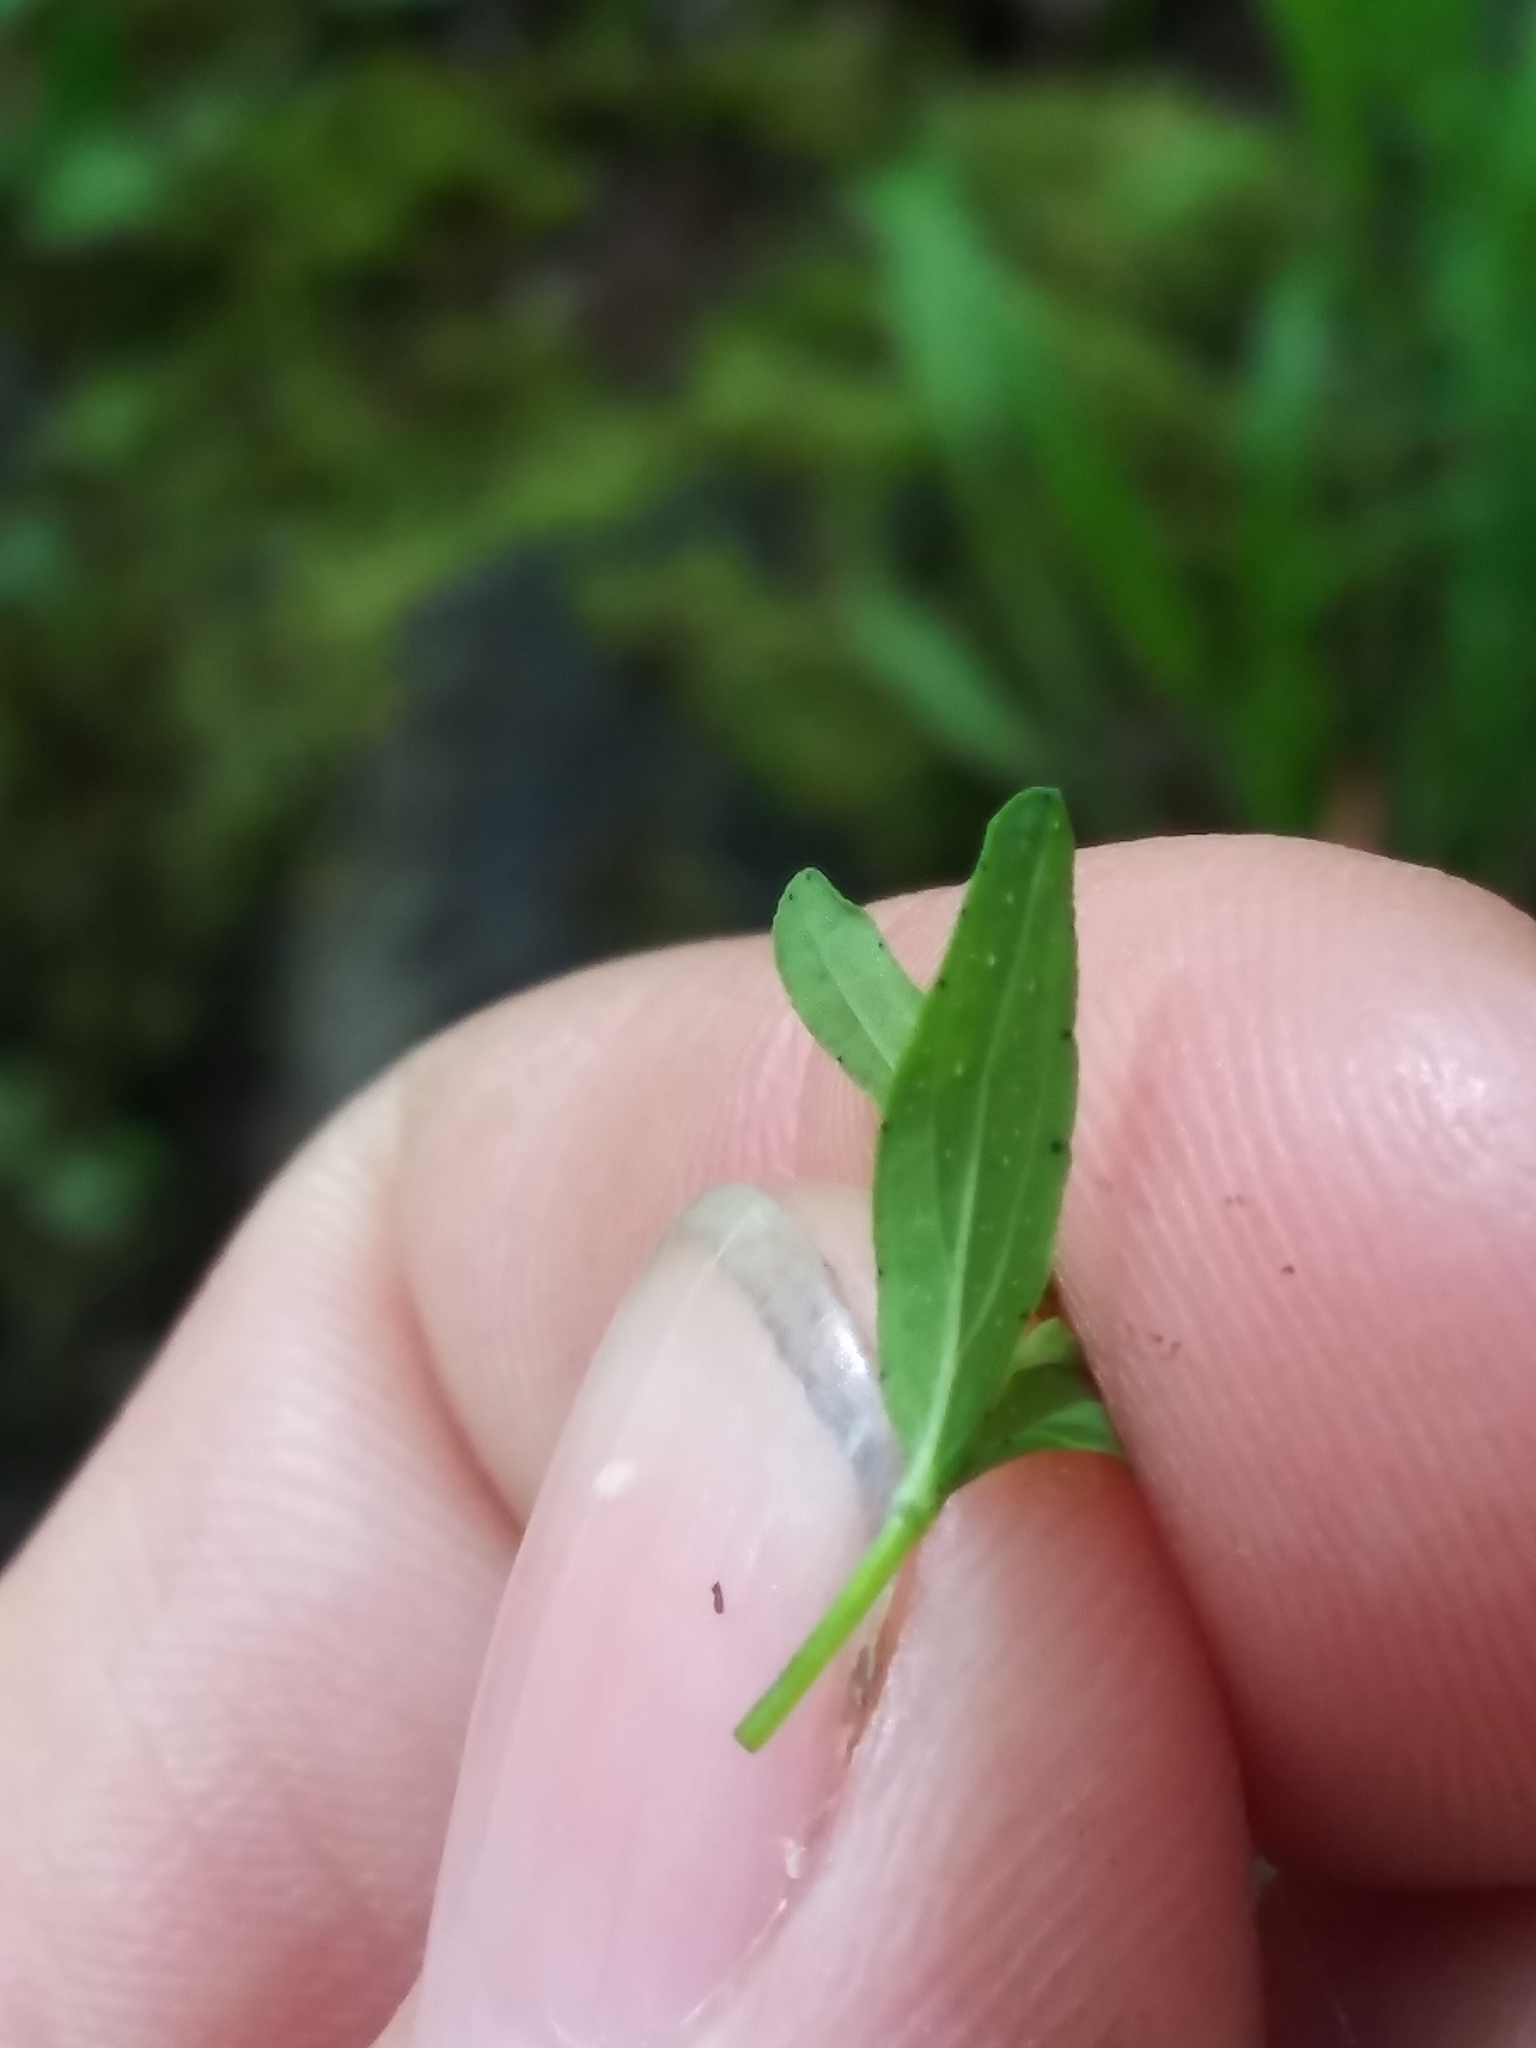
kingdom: Plantae
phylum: Tracheophyta
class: Magnoliopsida
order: Malpighiales
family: Hypericaceae
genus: Hypericum
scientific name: Hypericum perforatum
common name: Common st. johnswort
